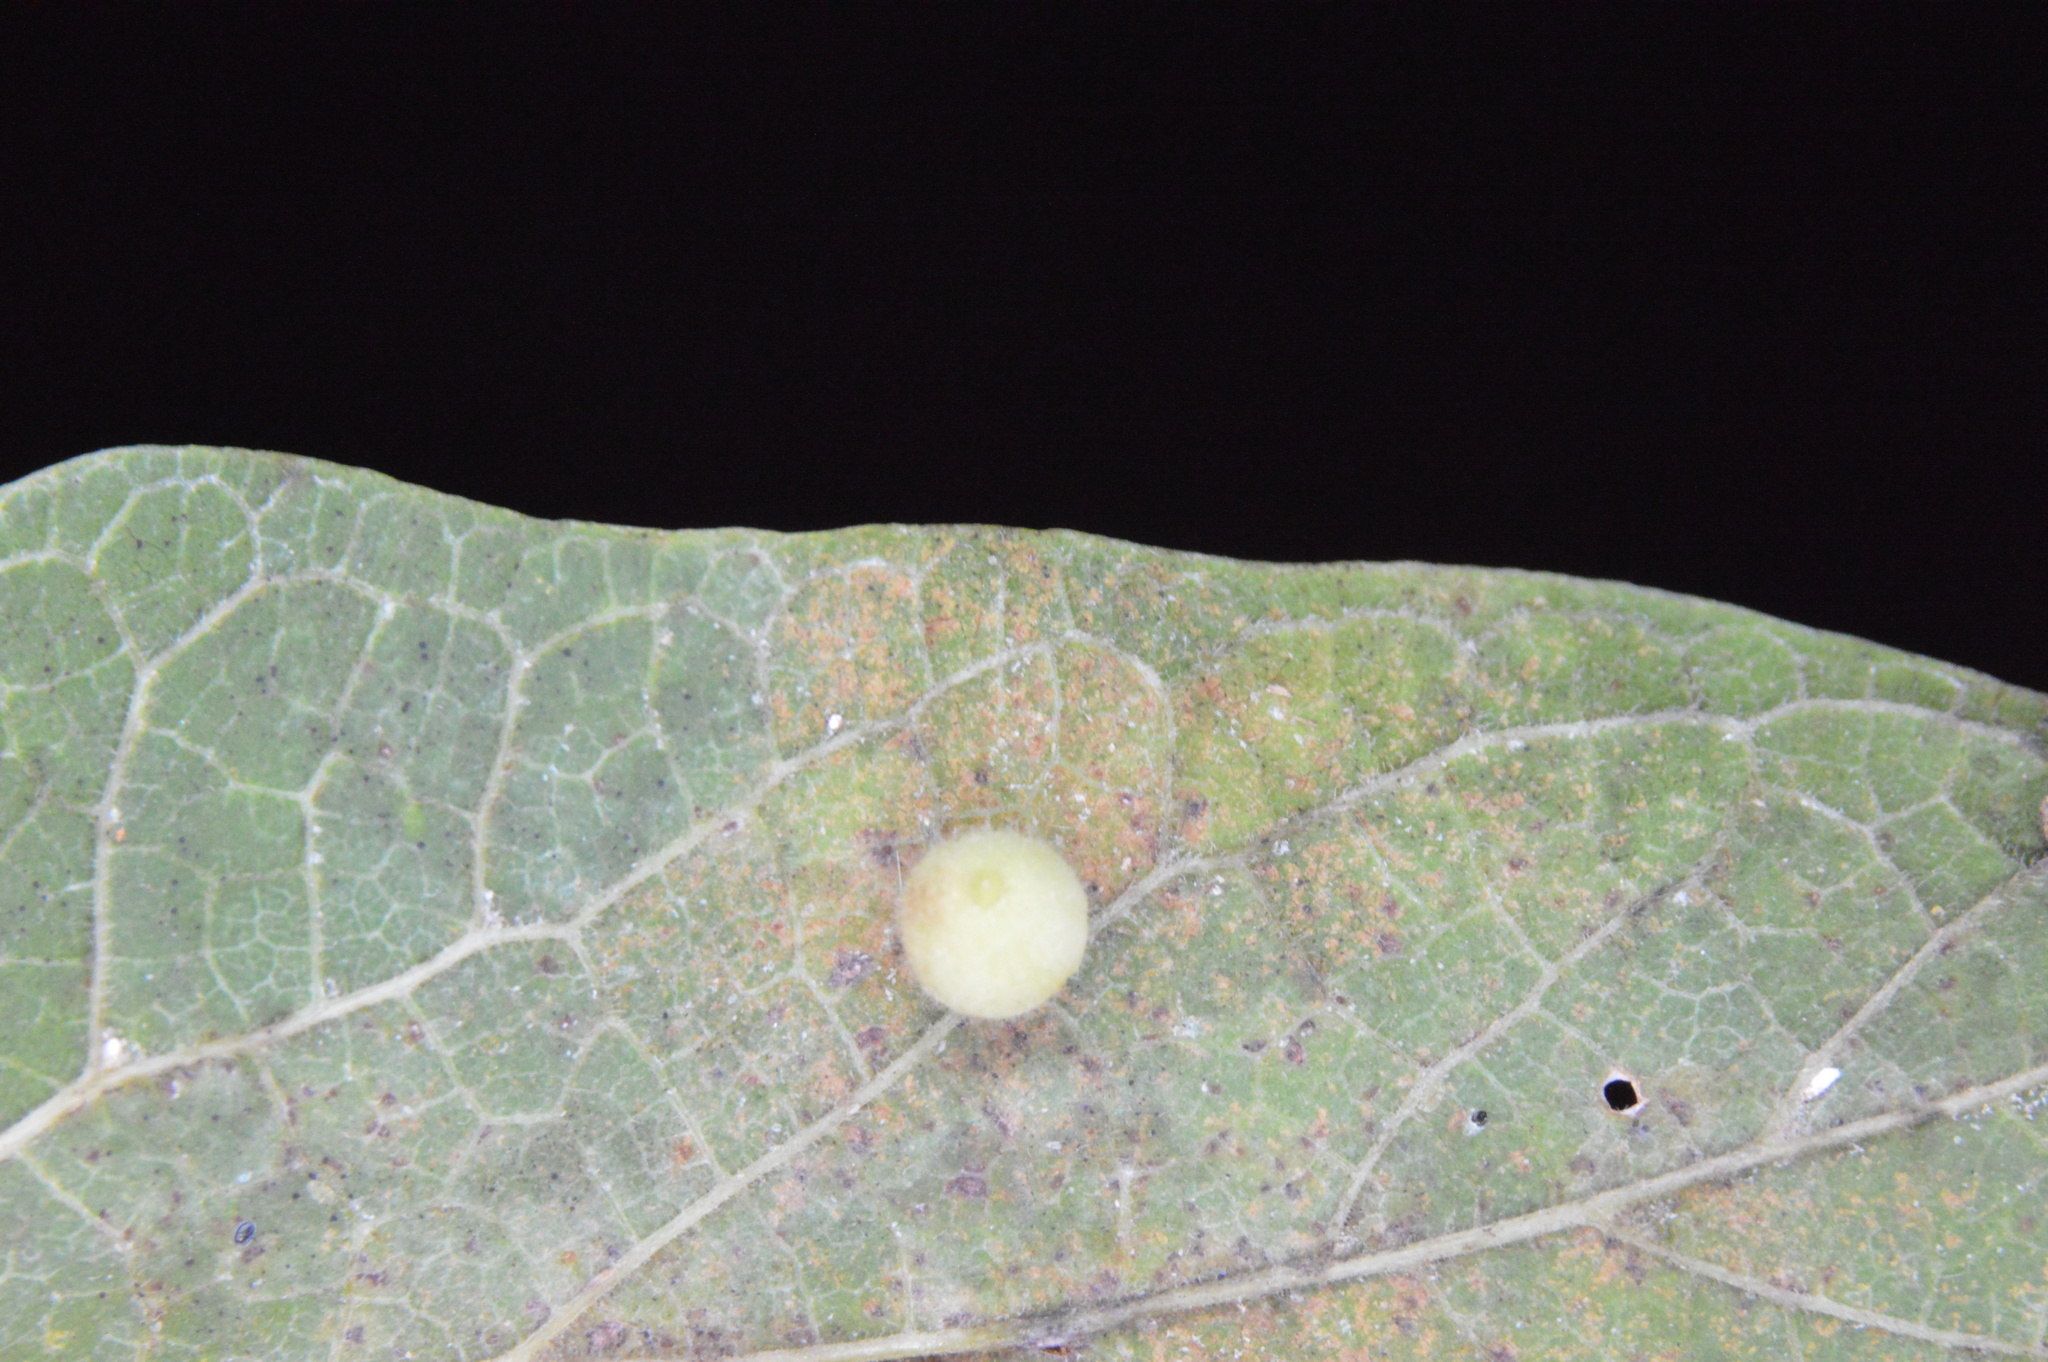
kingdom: Animalia
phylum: Arthropoda
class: Insecta
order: Diptera
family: Cecidomyiidae
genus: Celticecis
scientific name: Celticecis globosa
